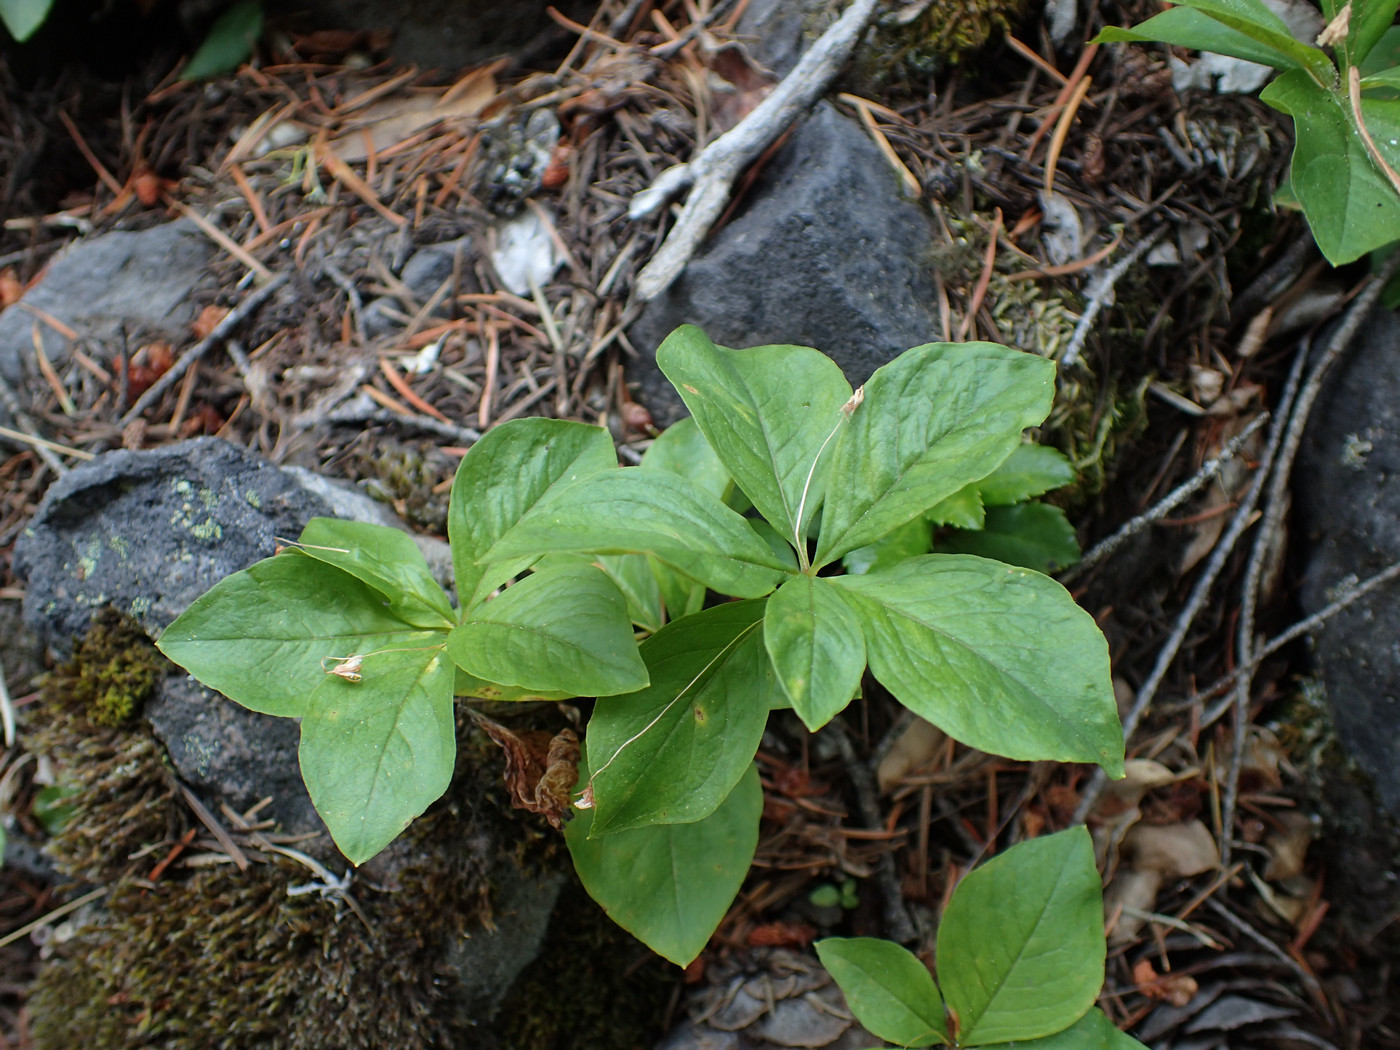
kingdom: Plantae
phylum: Tracheophyta
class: Magnoliopsida
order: Ericales
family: Primulaceae
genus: Lysimachia
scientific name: Lysimachia latifolia
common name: Pacific starflower
